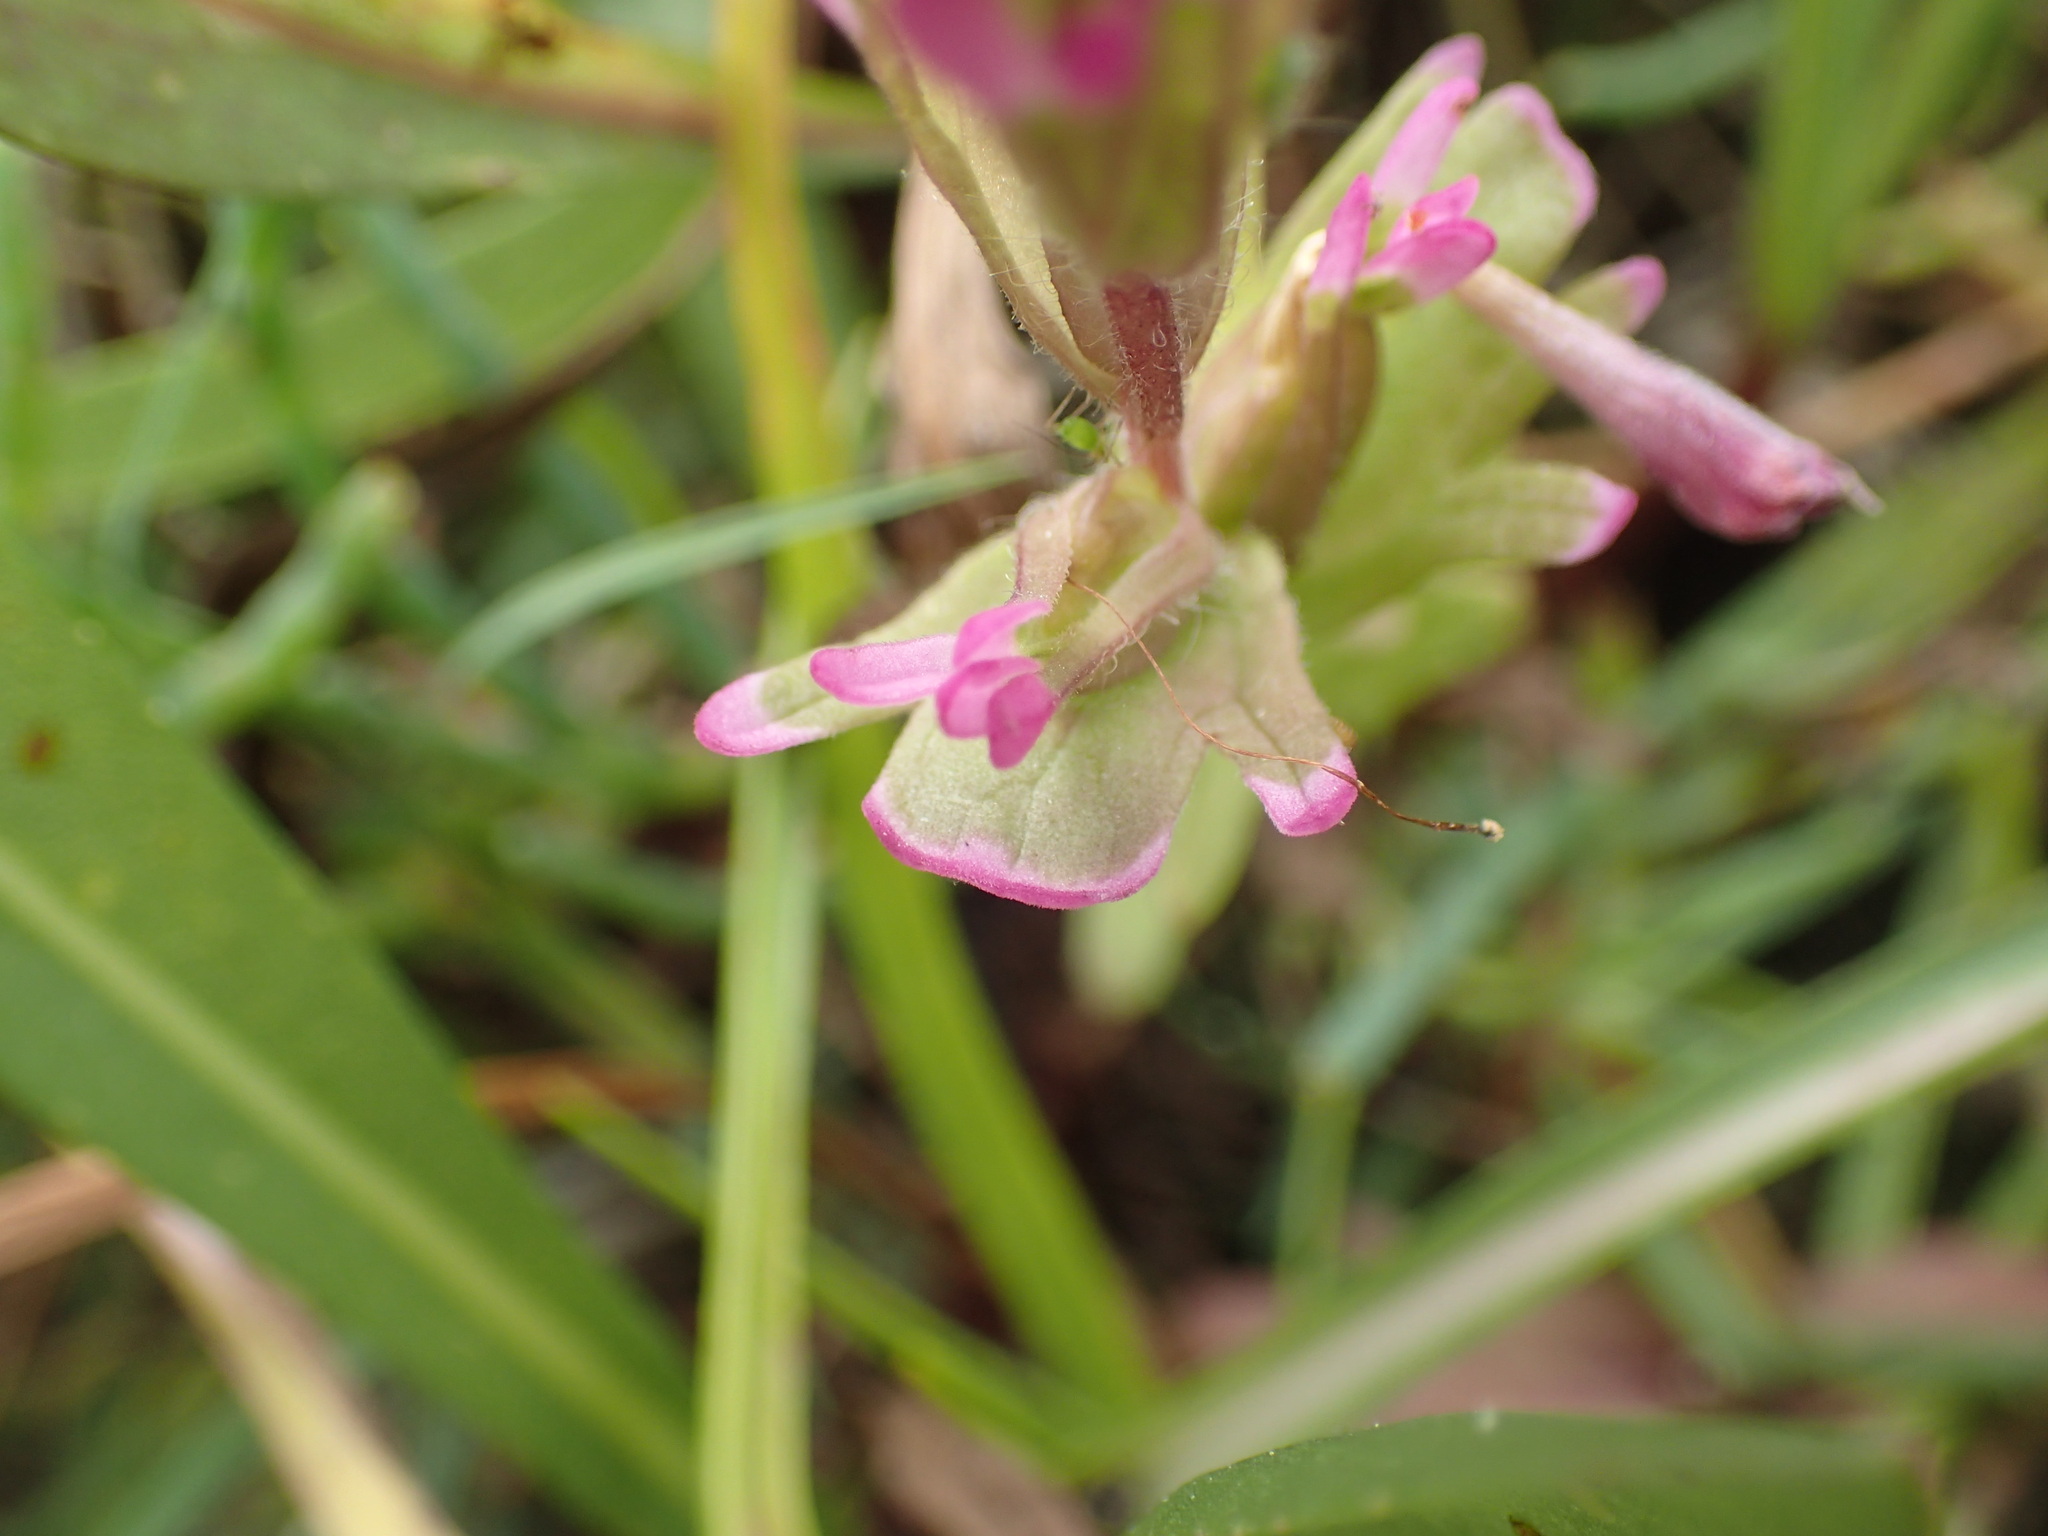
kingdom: Plantae
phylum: Tracheophyta
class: Magnoliopsida
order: Lamiales
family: Orobanchaceae
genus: Castilleja
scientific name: Castilleja ambigua
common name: Johnny-nip
